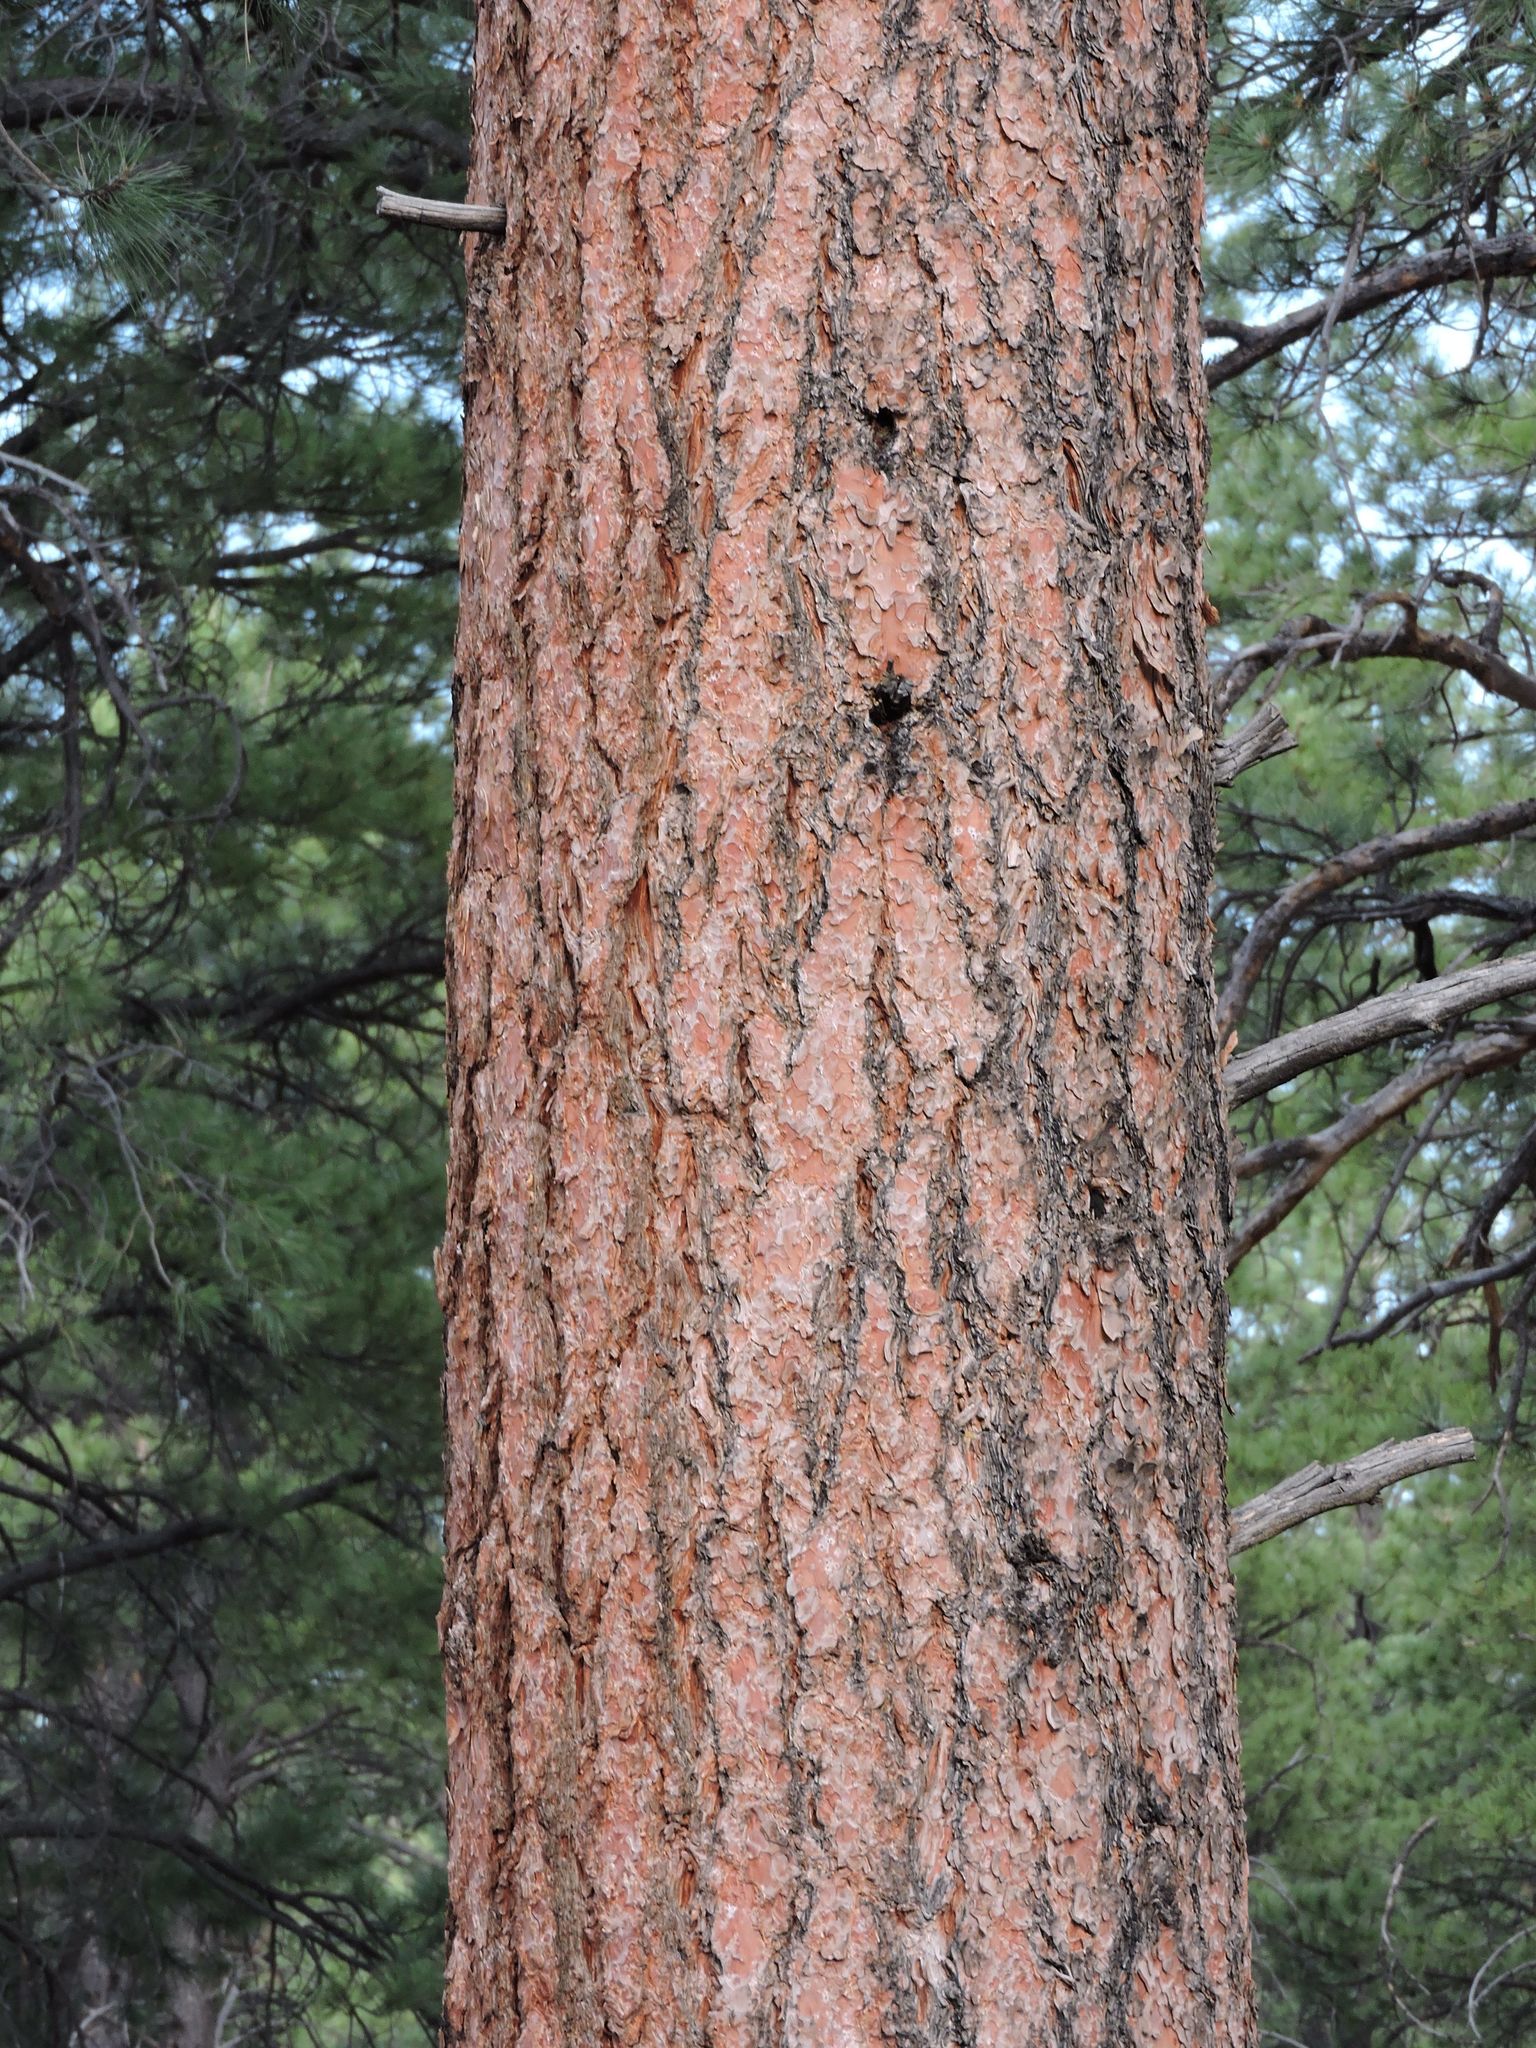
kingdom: Plantae
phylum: Tracheophyta
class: Pinopsida
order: Pinales
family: Pinaceae
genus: Pinus
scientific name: Pinus ponderosa
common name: Western yellow-pine
